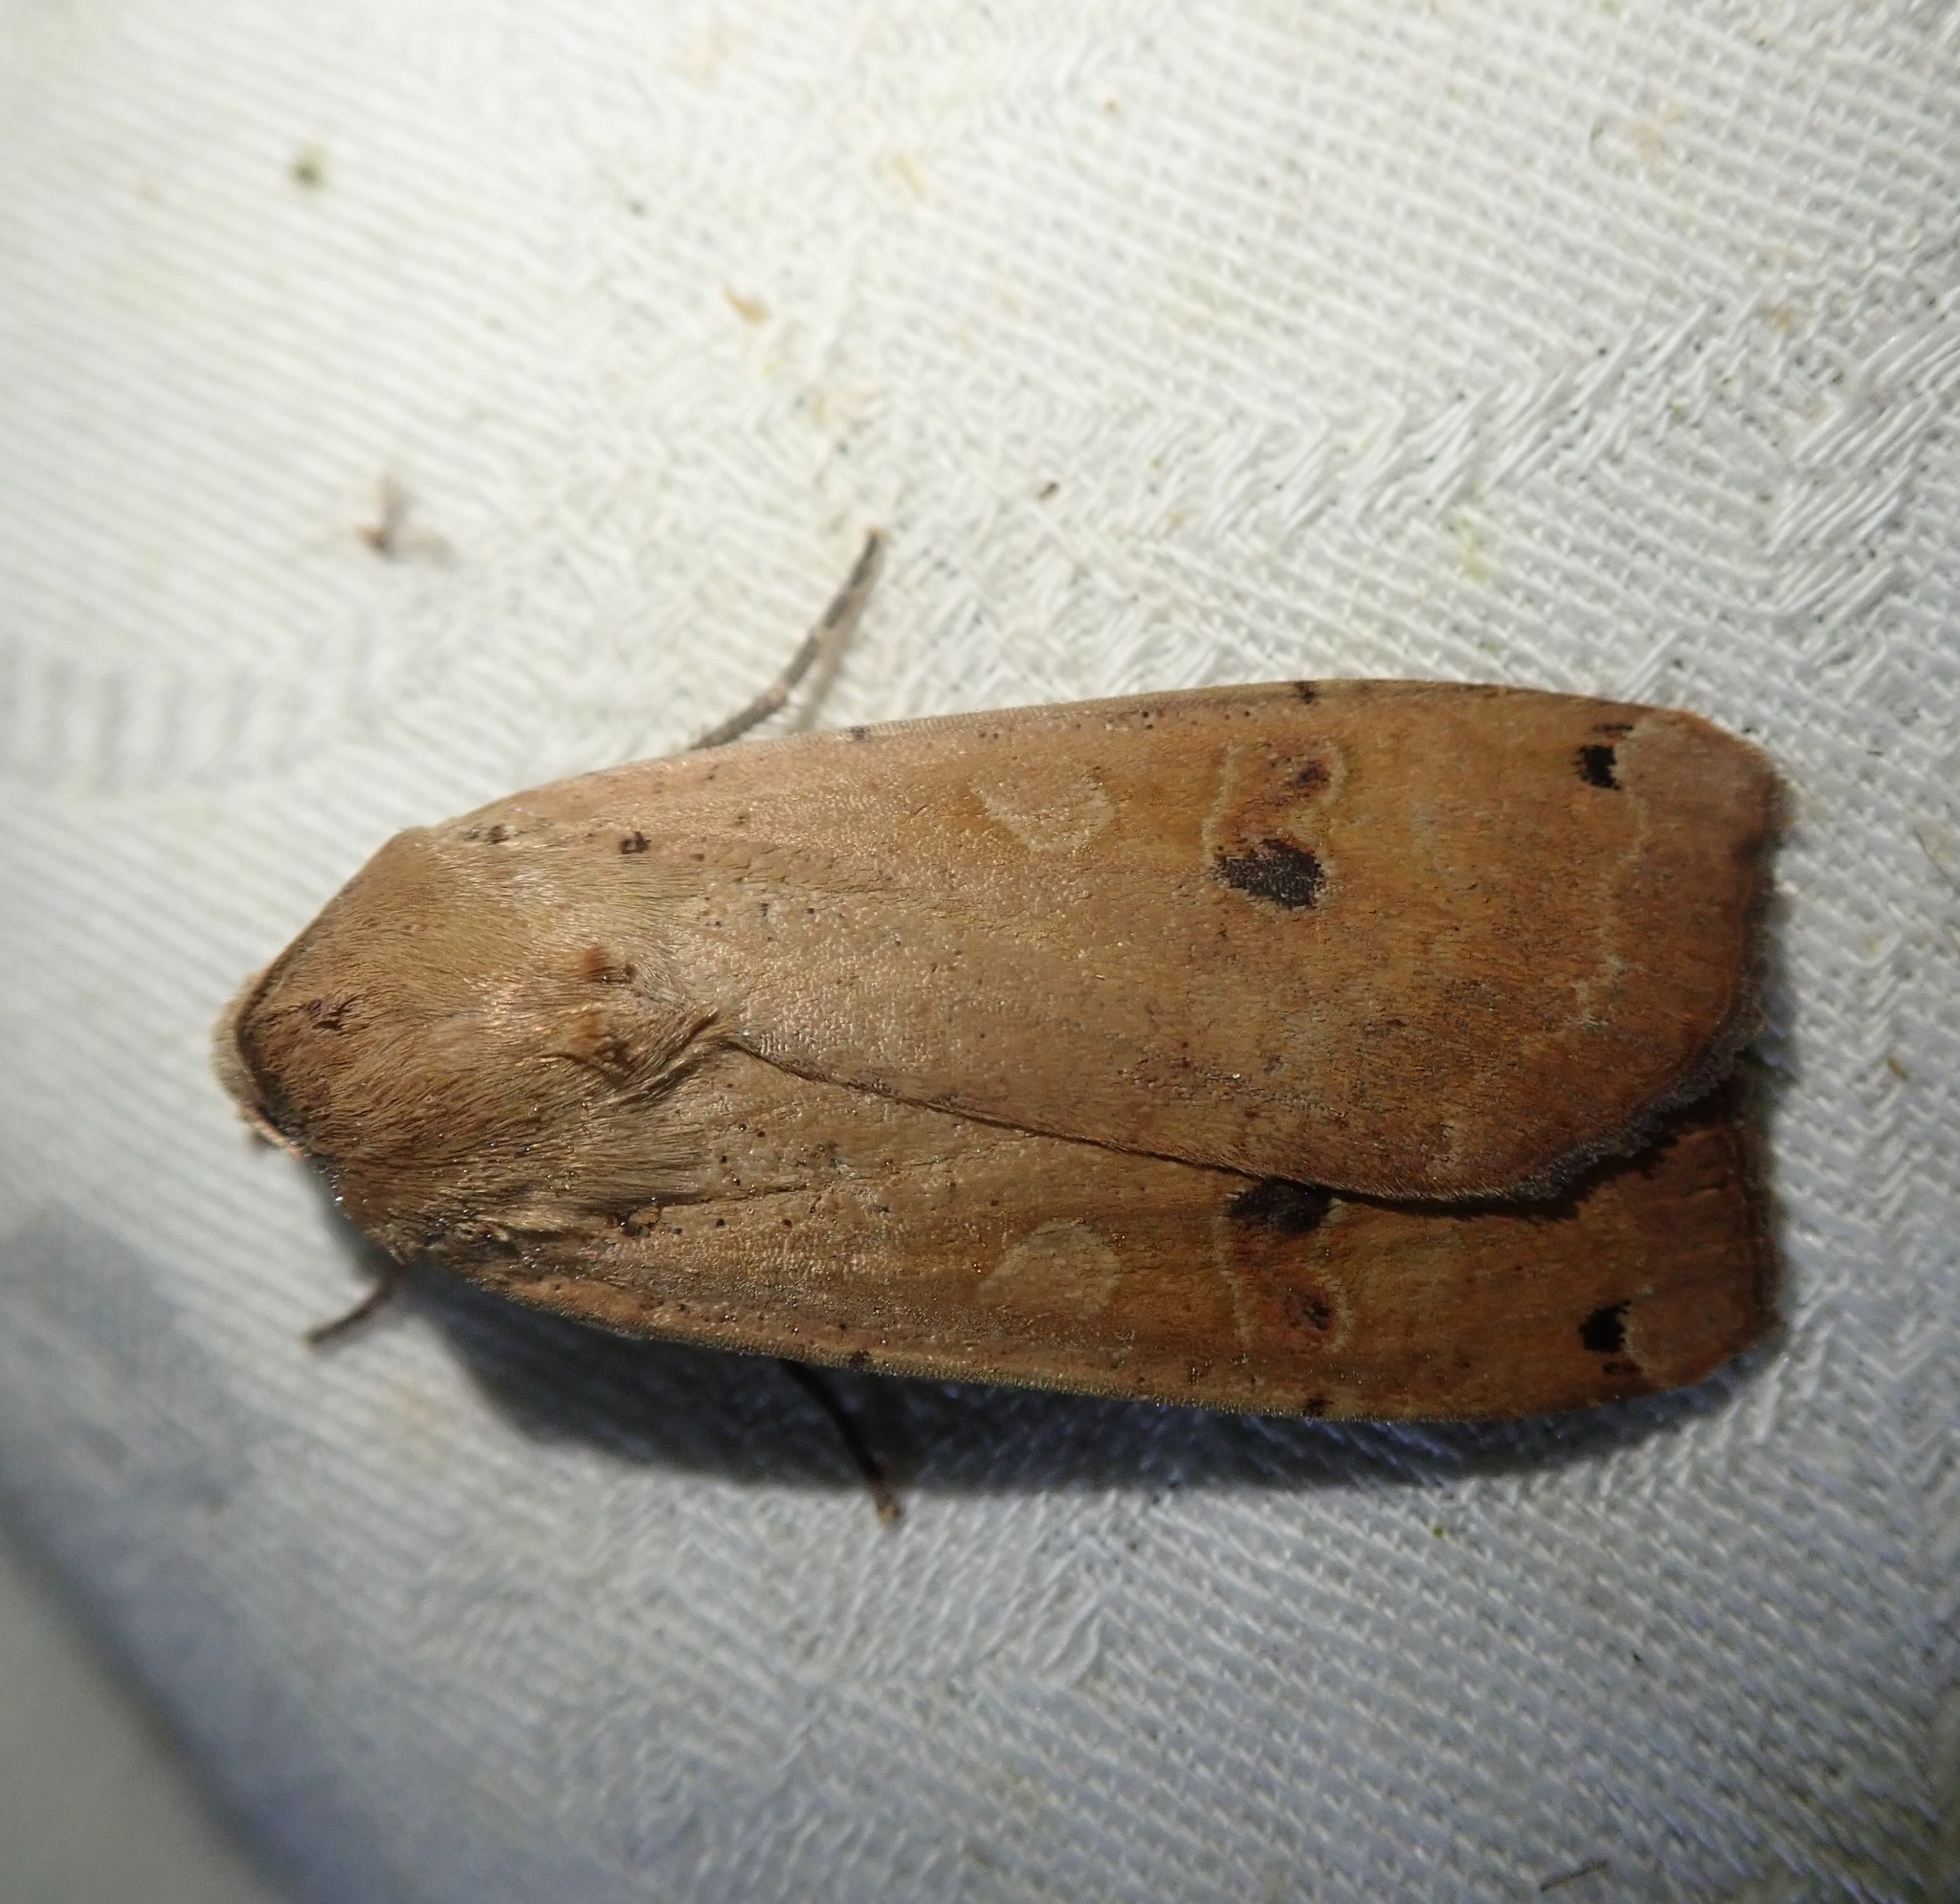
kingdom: Animalia
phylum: Arthropoda
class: Insecta
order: Lepidoptera
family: Noctuidae
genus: Noctua
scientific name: Noctua pronuba
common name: Large yellow underwing
